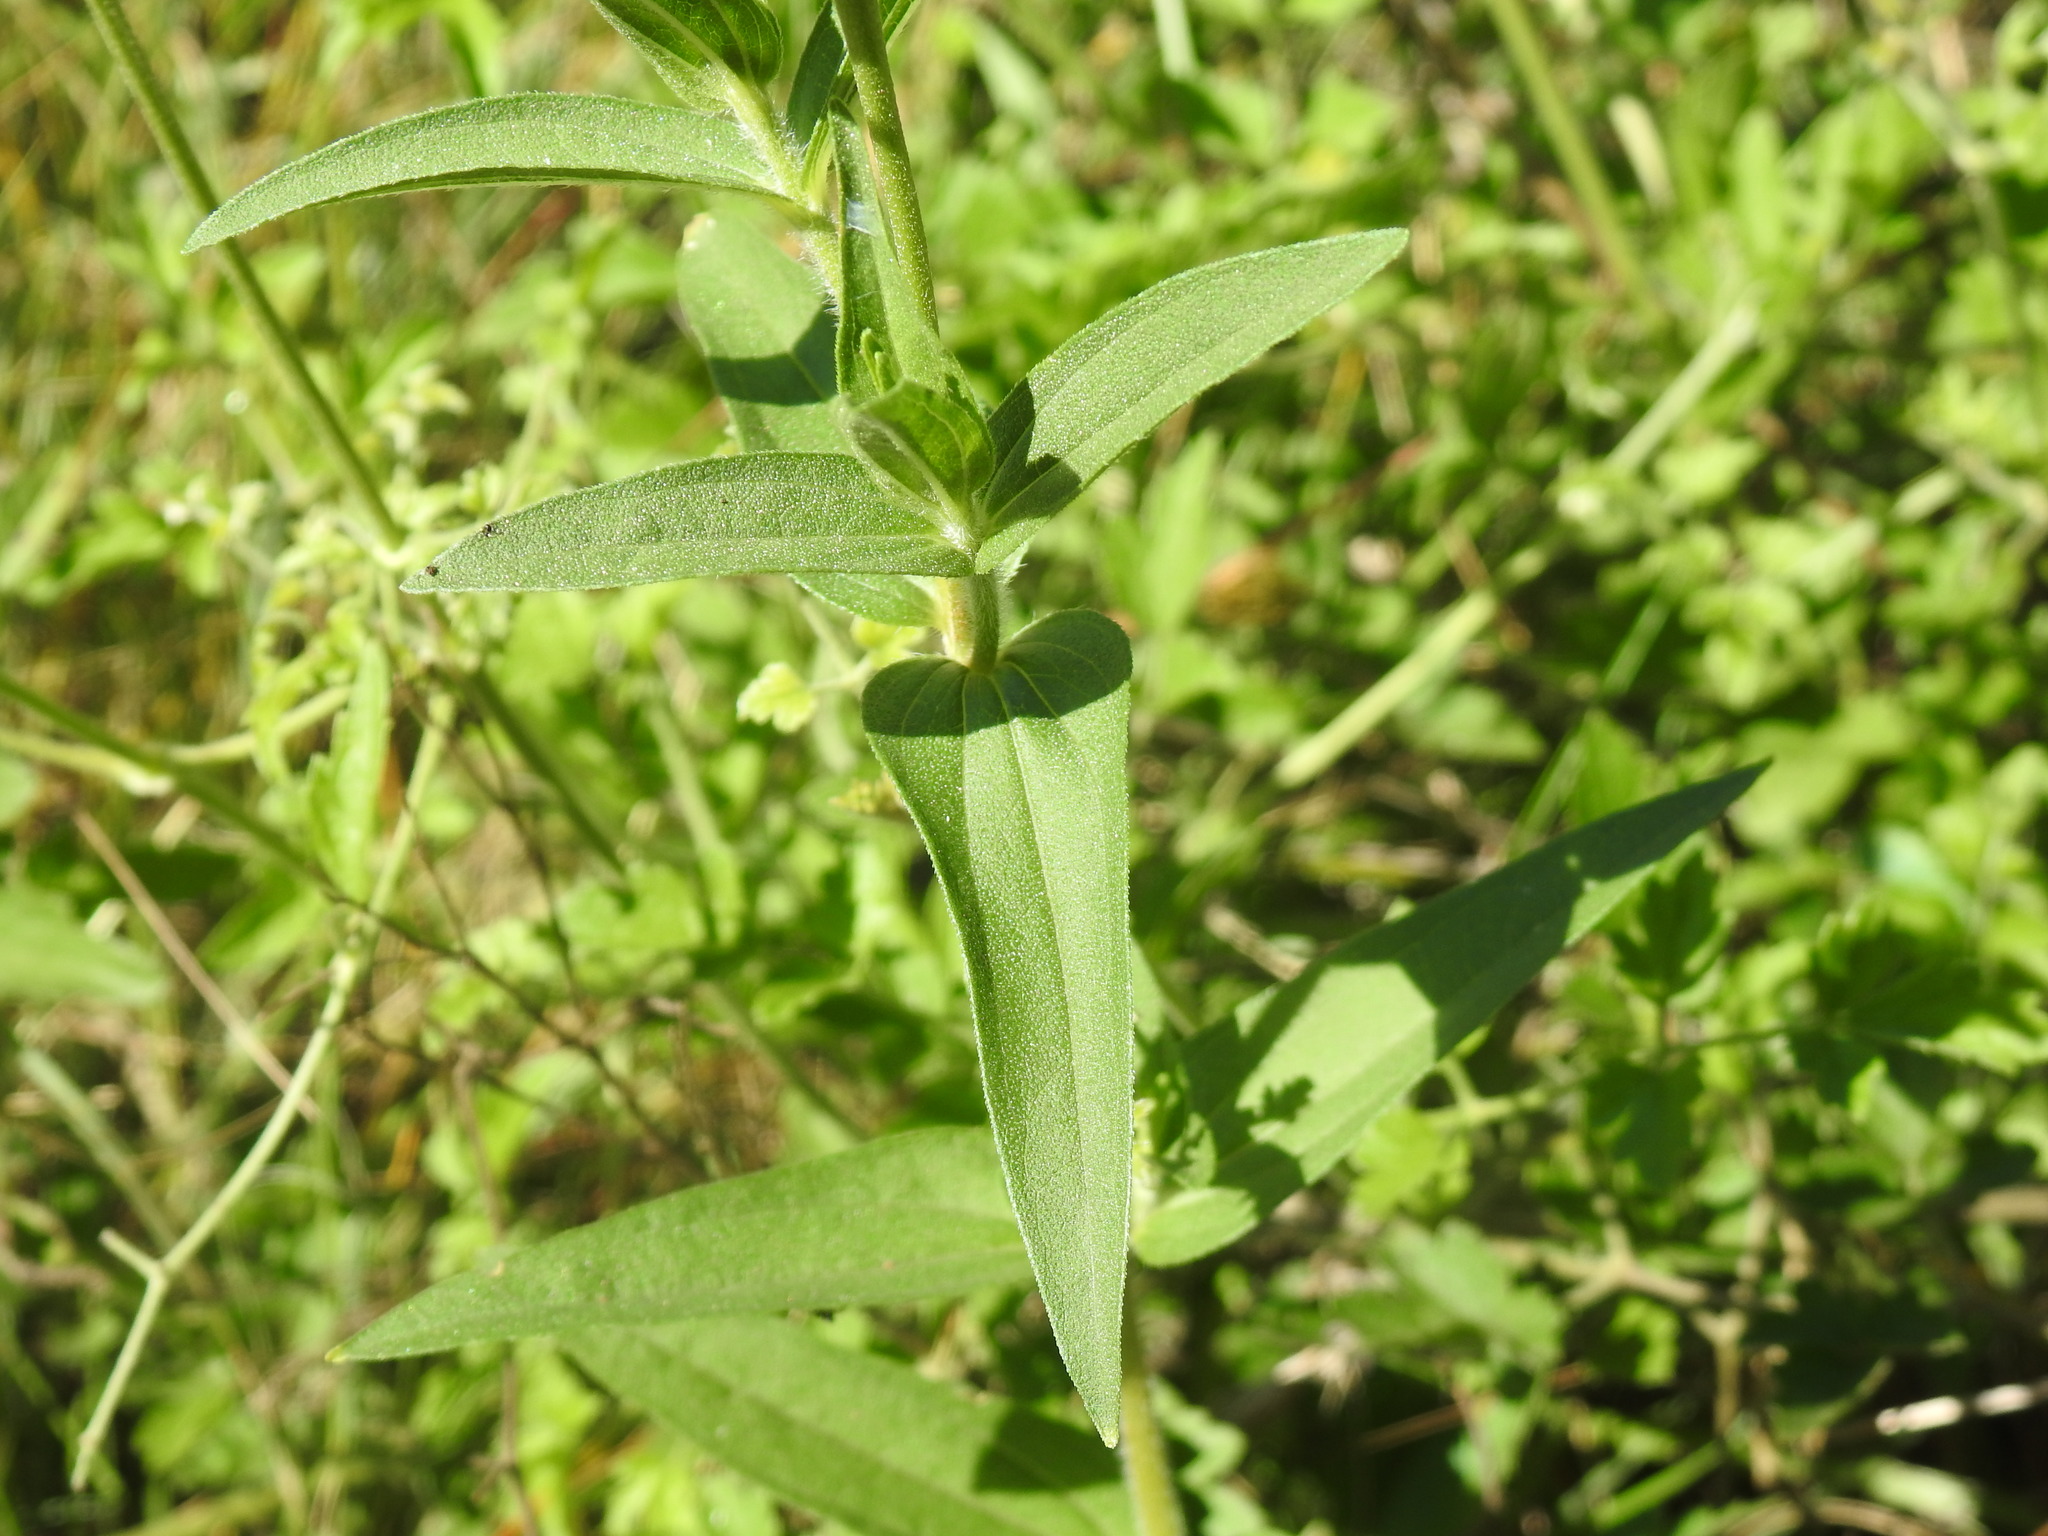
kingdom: Plantae
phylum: Tracheophyta
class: Magnoliopsida
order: Asterales
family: Asteraceae
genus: Zinnia
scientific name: Zinnia peruviana
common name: Peruvian zinnia
